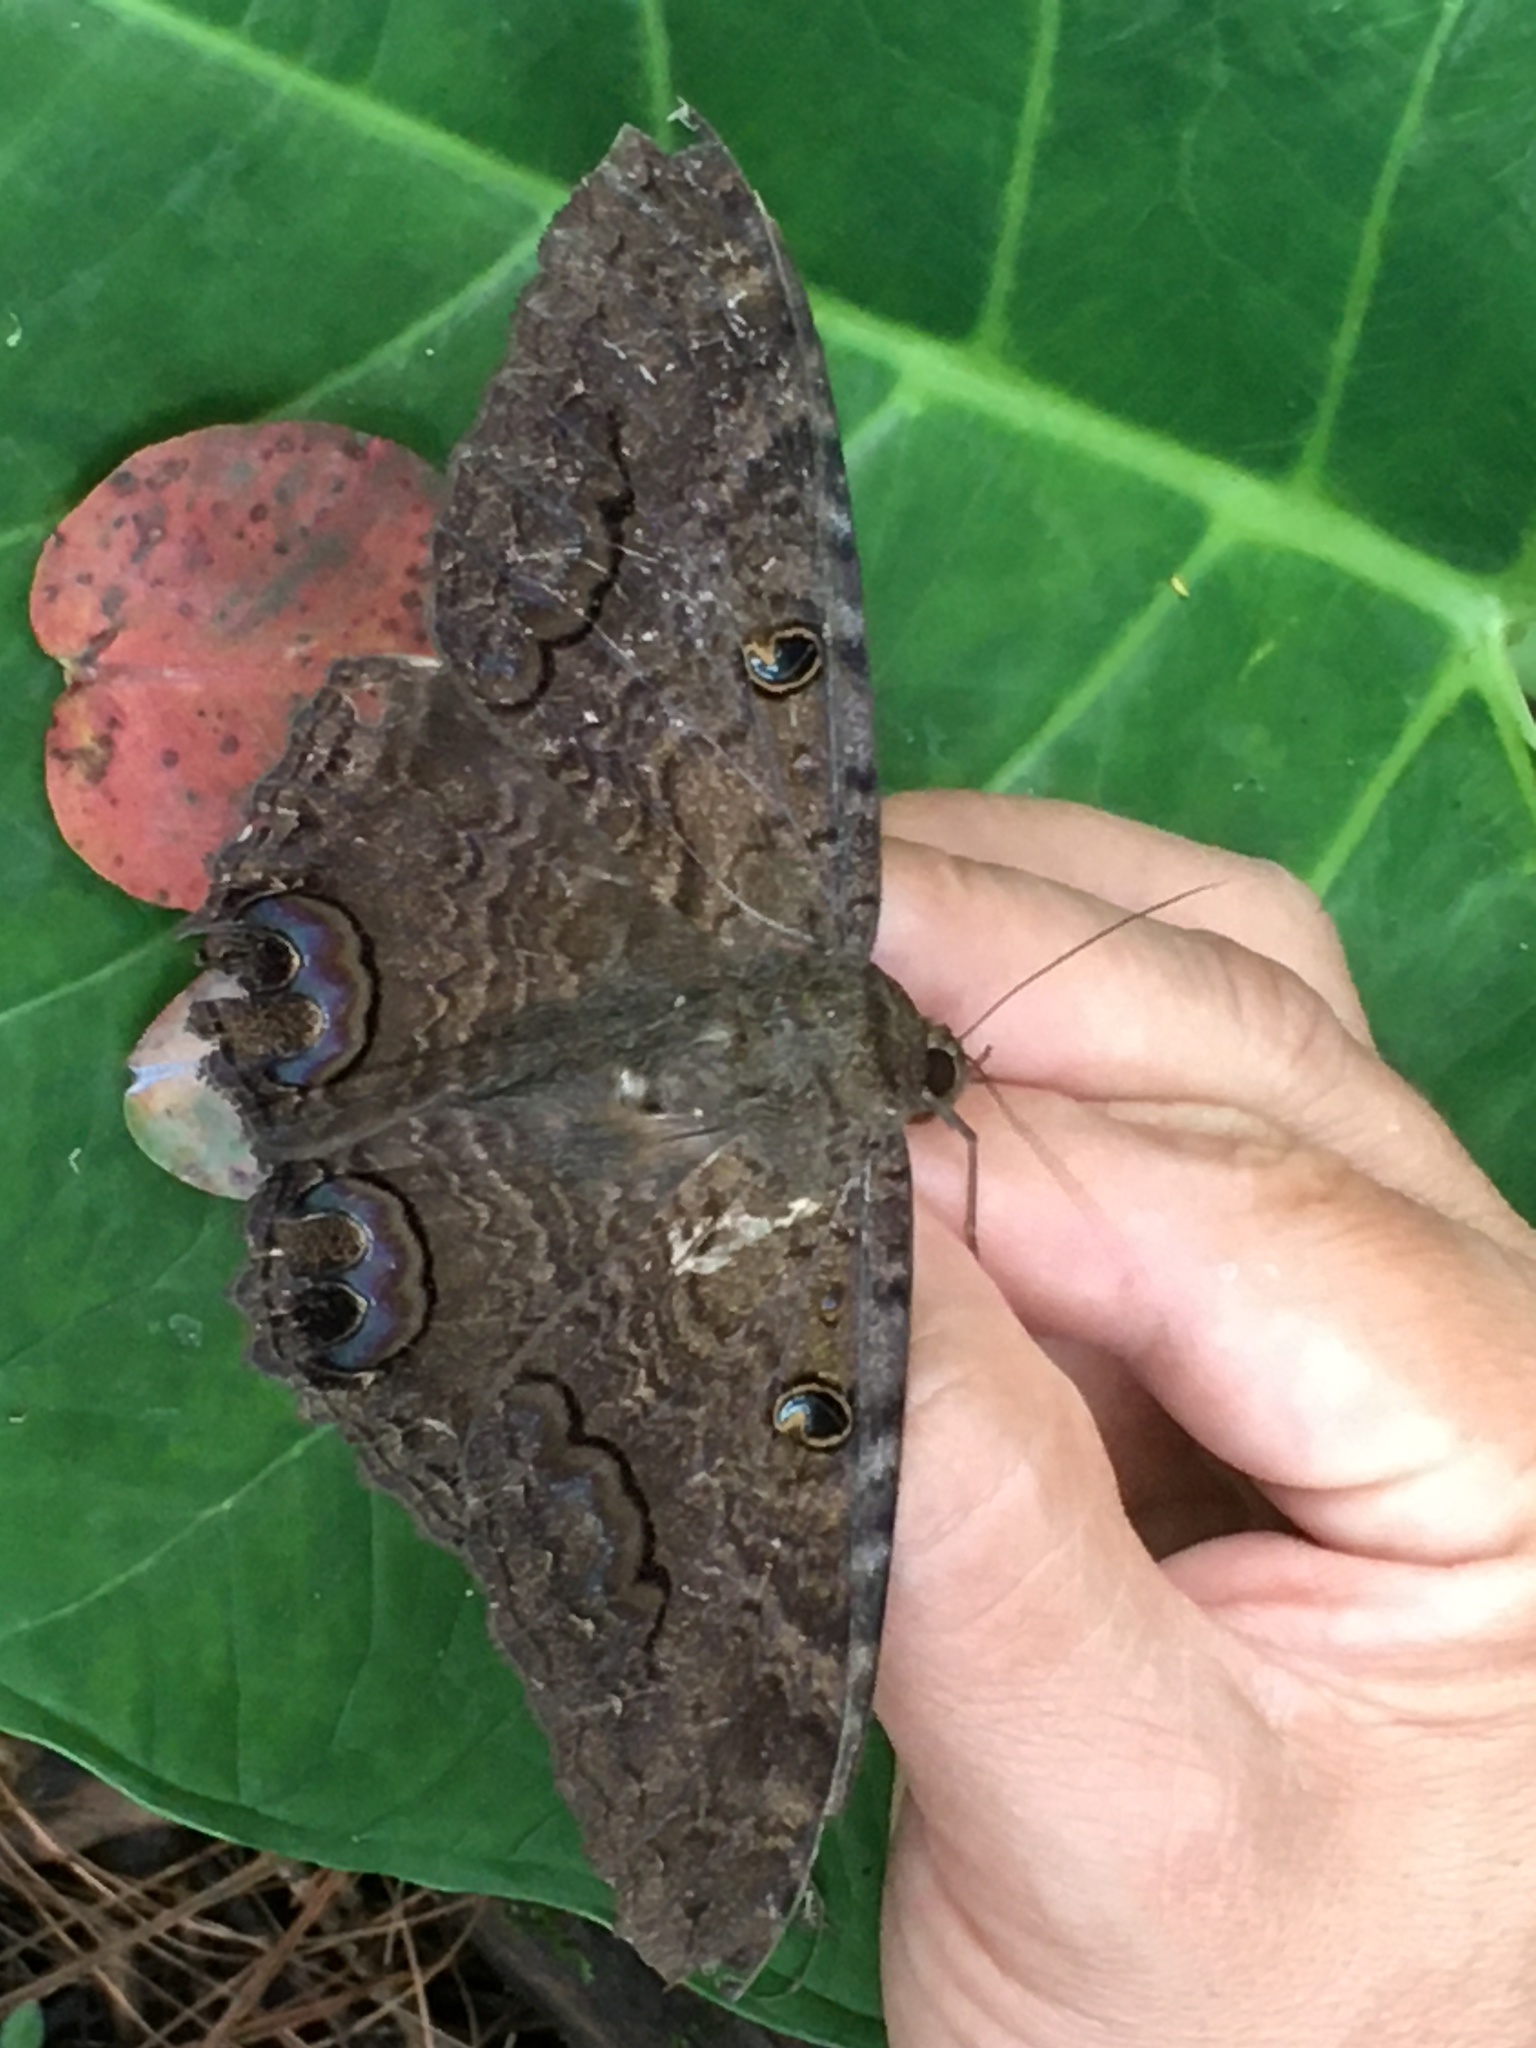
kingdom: Animalia
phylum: Arthropoda
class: Insecta
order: Lepidoptera
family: Erebidae
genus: Ascalapha
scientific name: Ascalapha odorata
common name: Black witch
